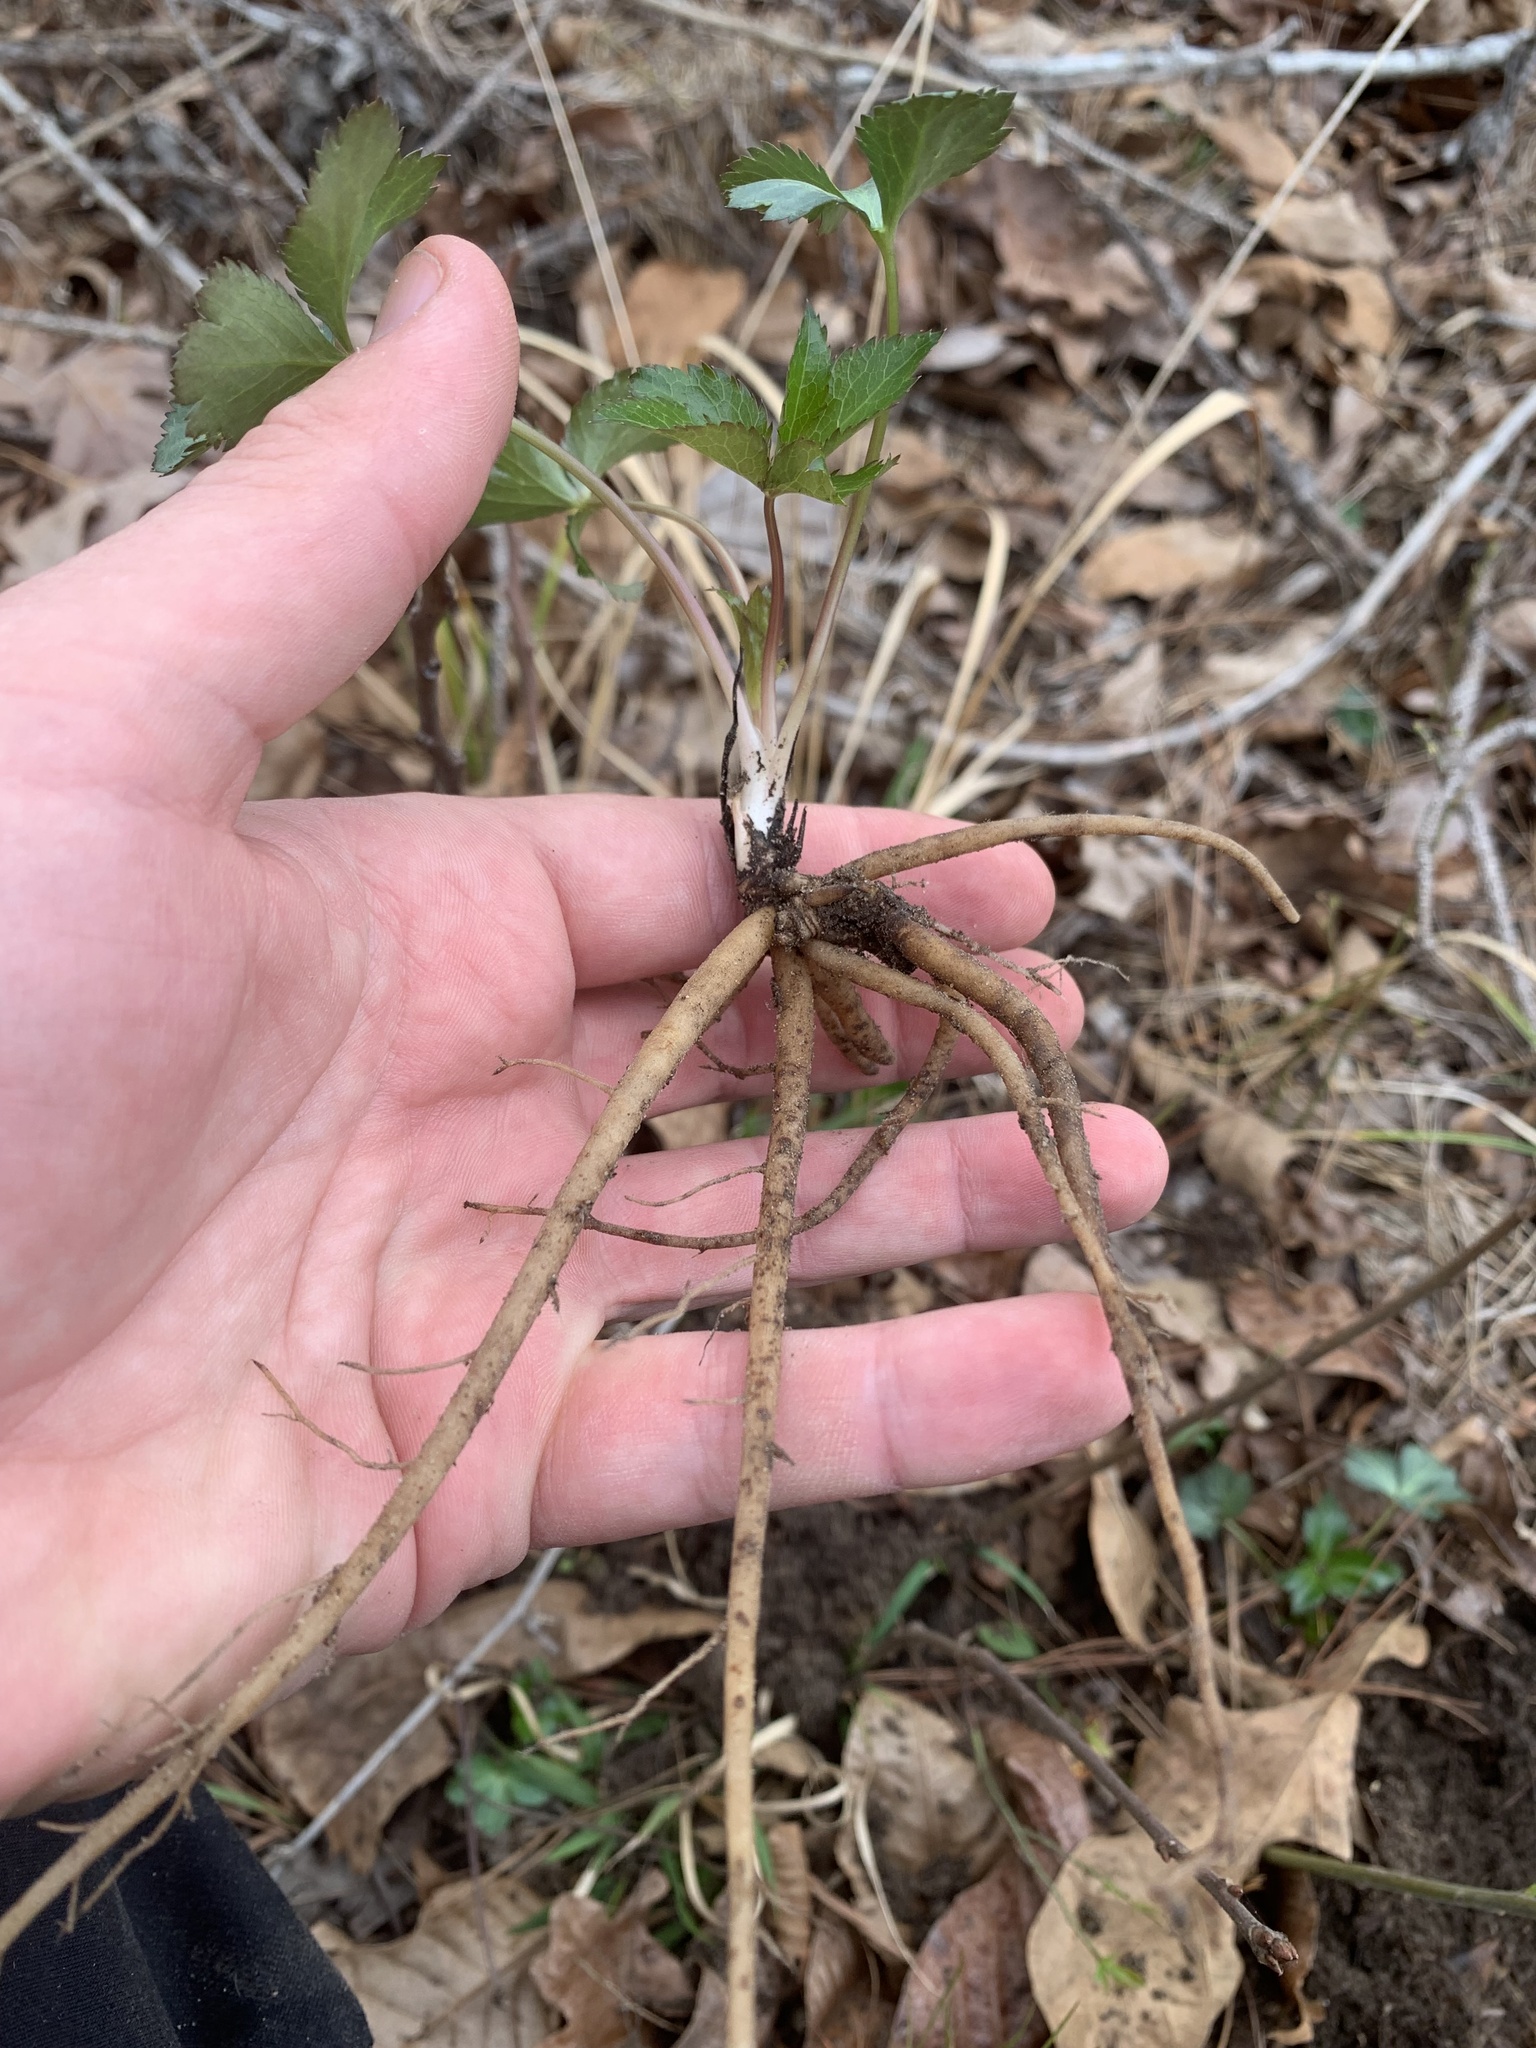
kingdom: Plantae
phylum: Tracheophyta
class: Magnoliopsida
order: Apiales
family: Apiaceae
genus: Sanicula
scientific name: Sanicula smallii
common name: Small's black snakeroot
